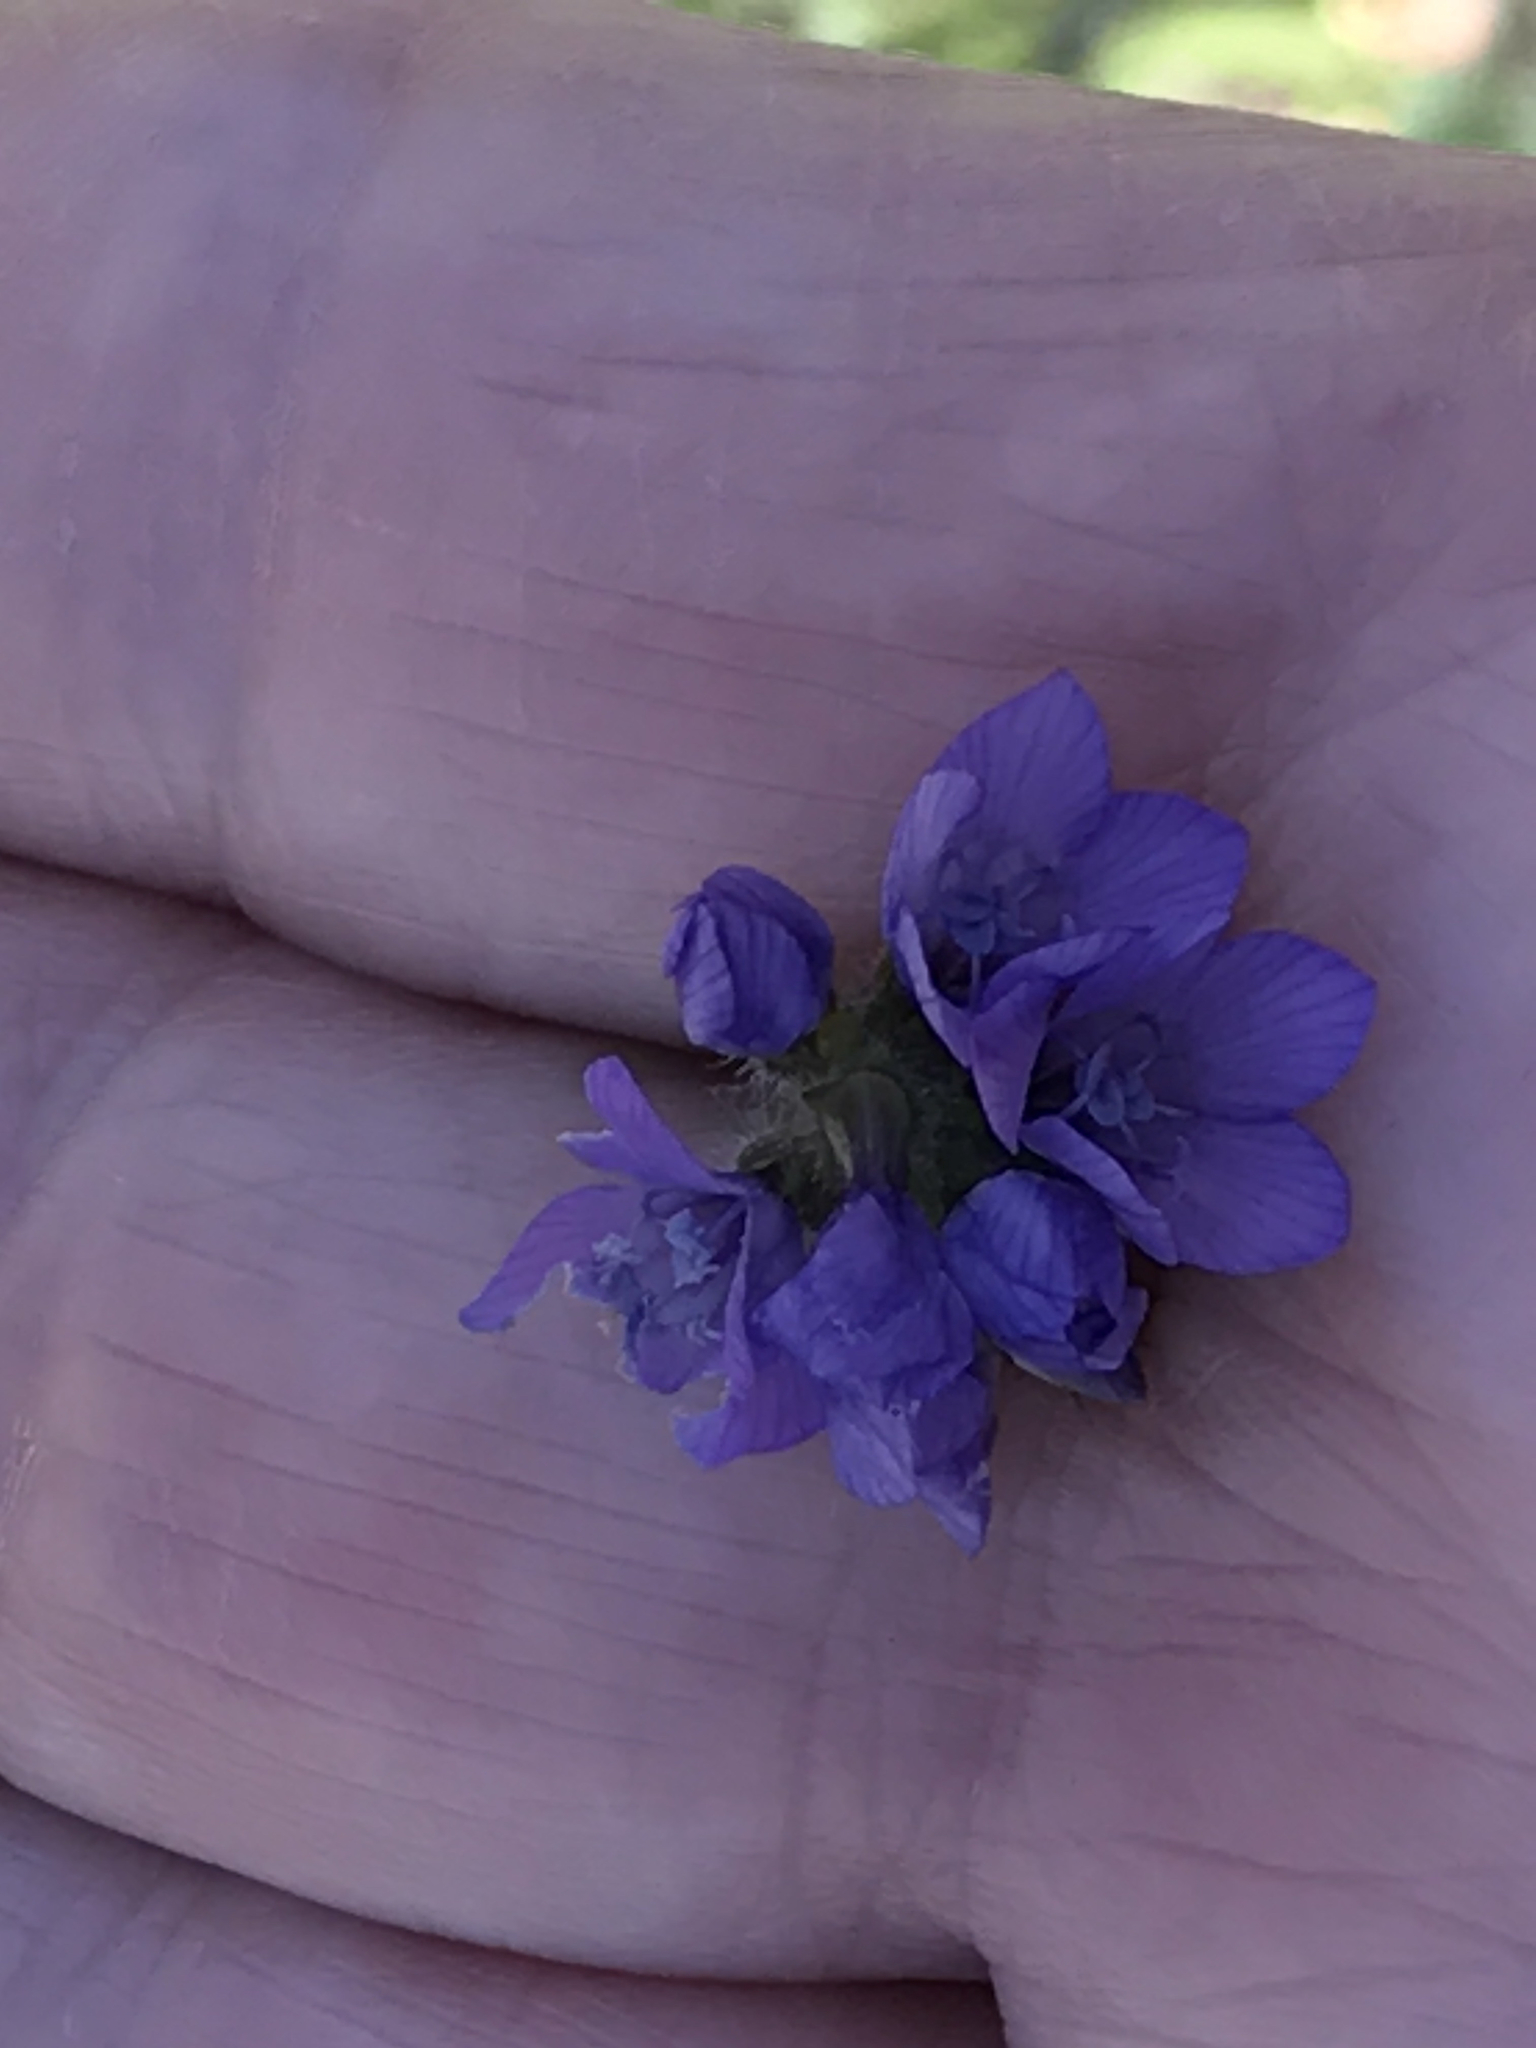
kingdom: Plantae
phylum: Tracheophyta
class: Magnoliopsida
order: Ericales
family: Polemoniaceae
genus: Gilia
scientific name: Gilia achilleifolia
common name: California gily-flower
